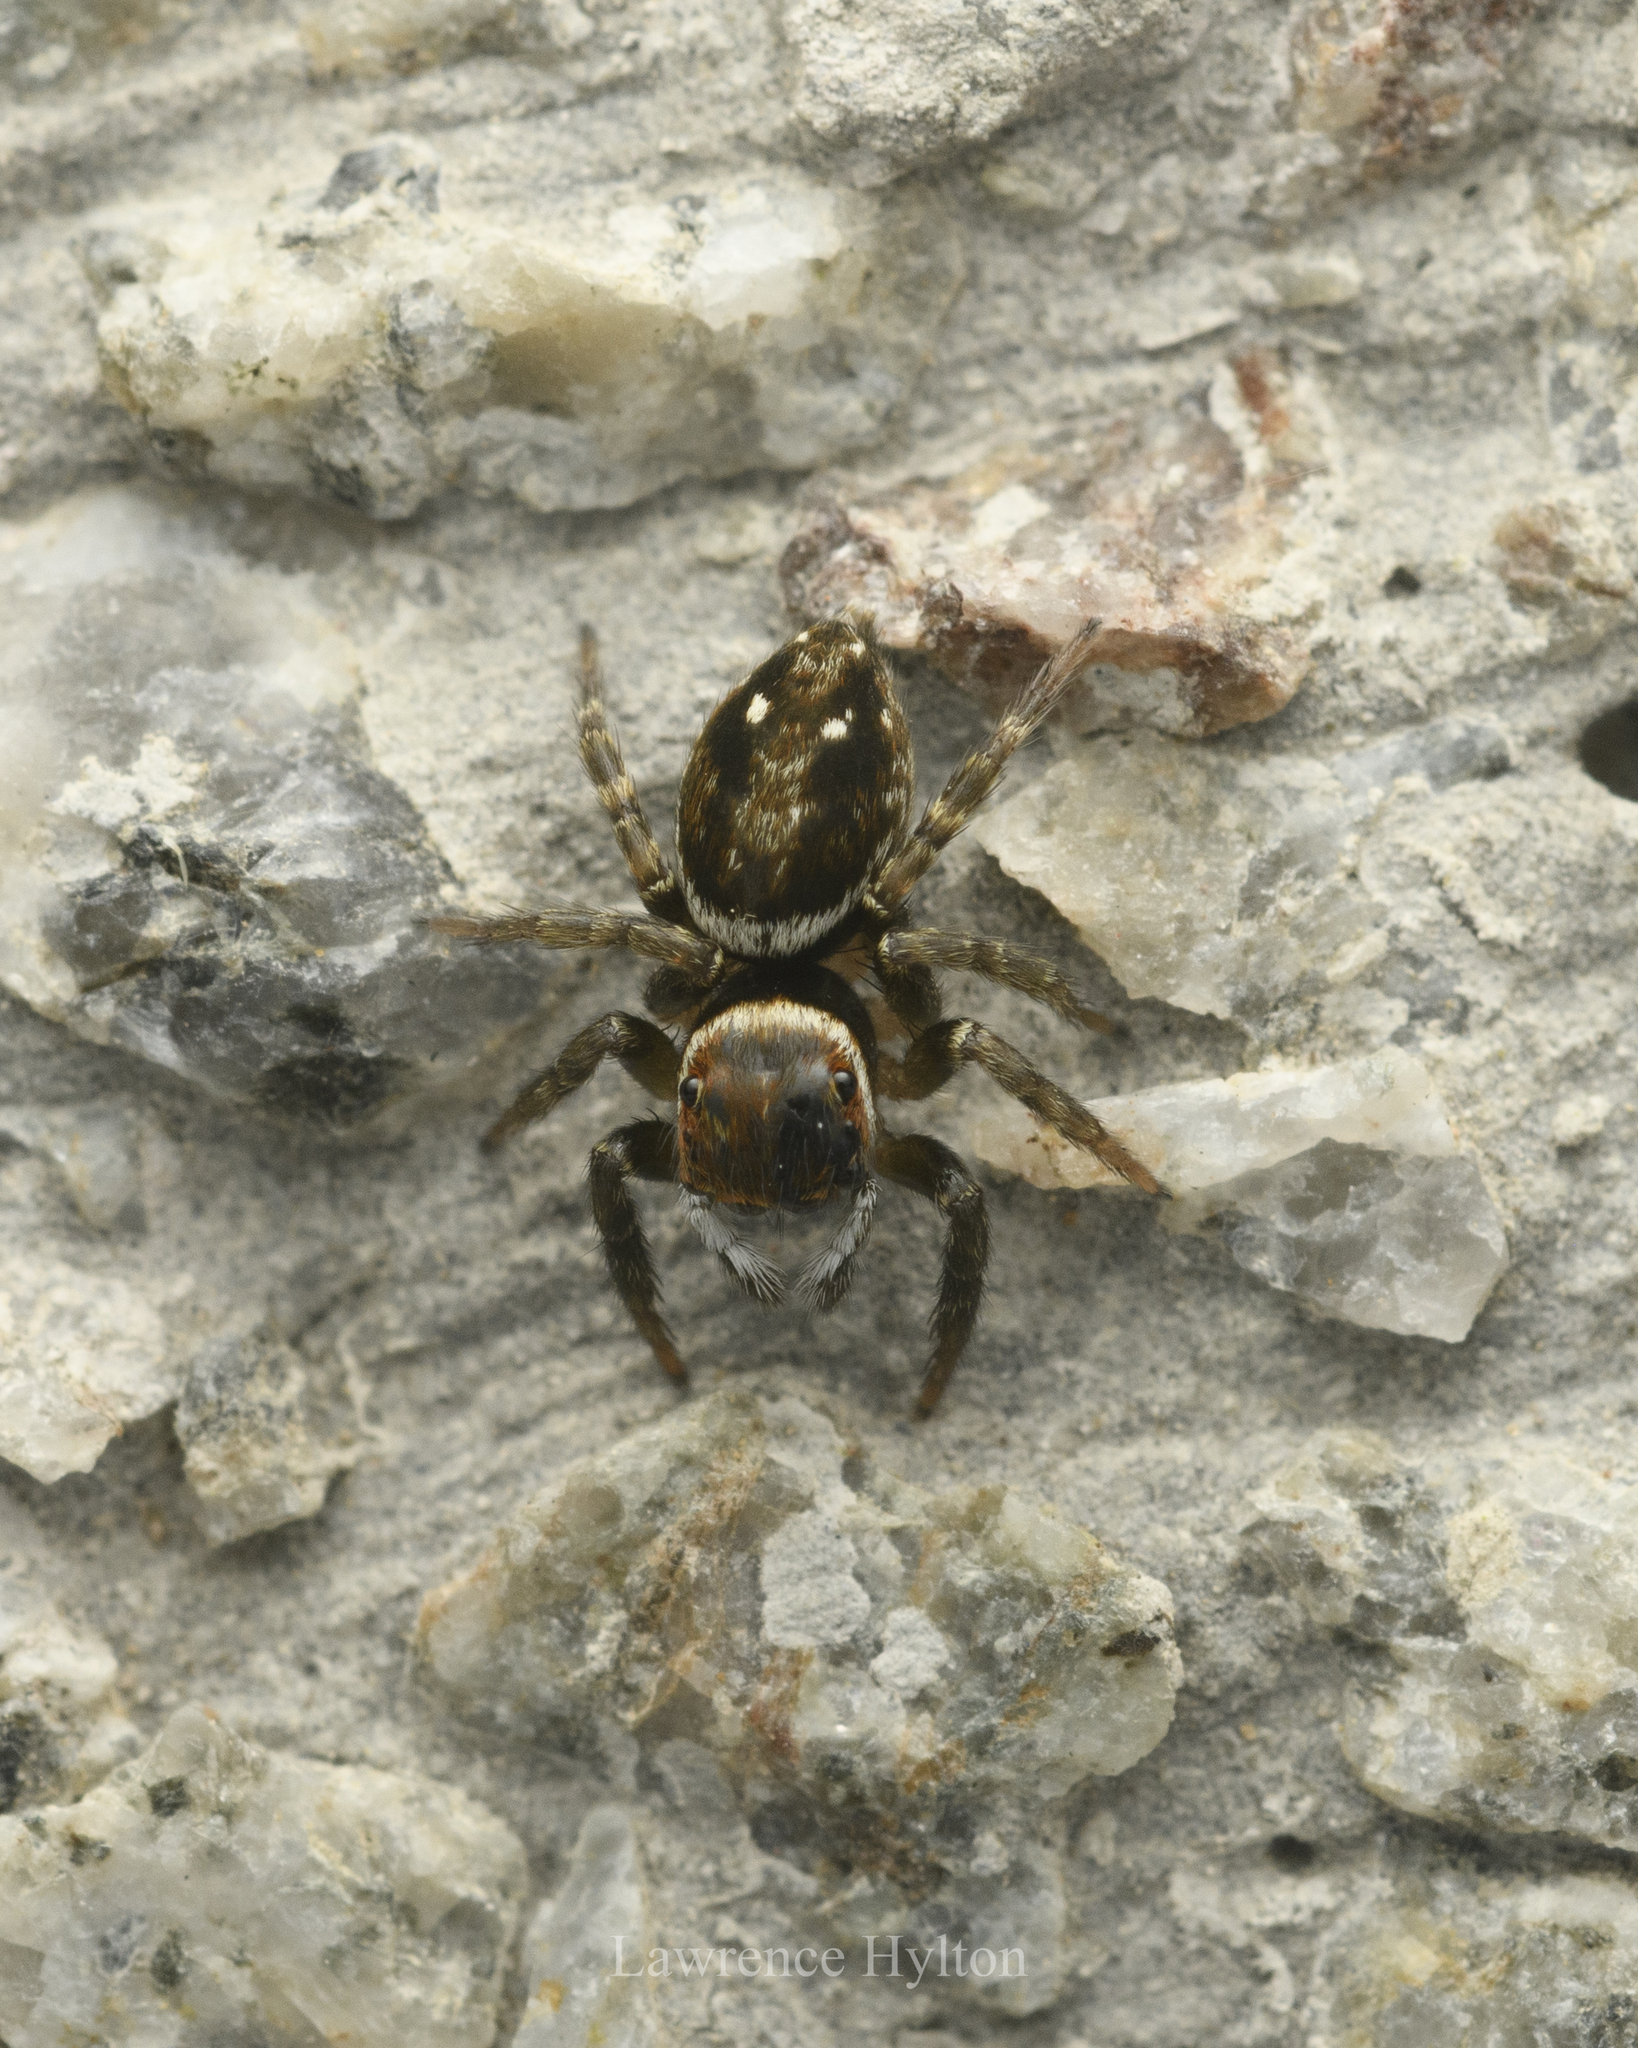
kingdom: Animalia
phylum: Arthropoda
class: Arachnida
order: Araneae
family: Salticidae
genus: Hasarius
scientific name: Hasarius adansoni
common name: Jumping spider
